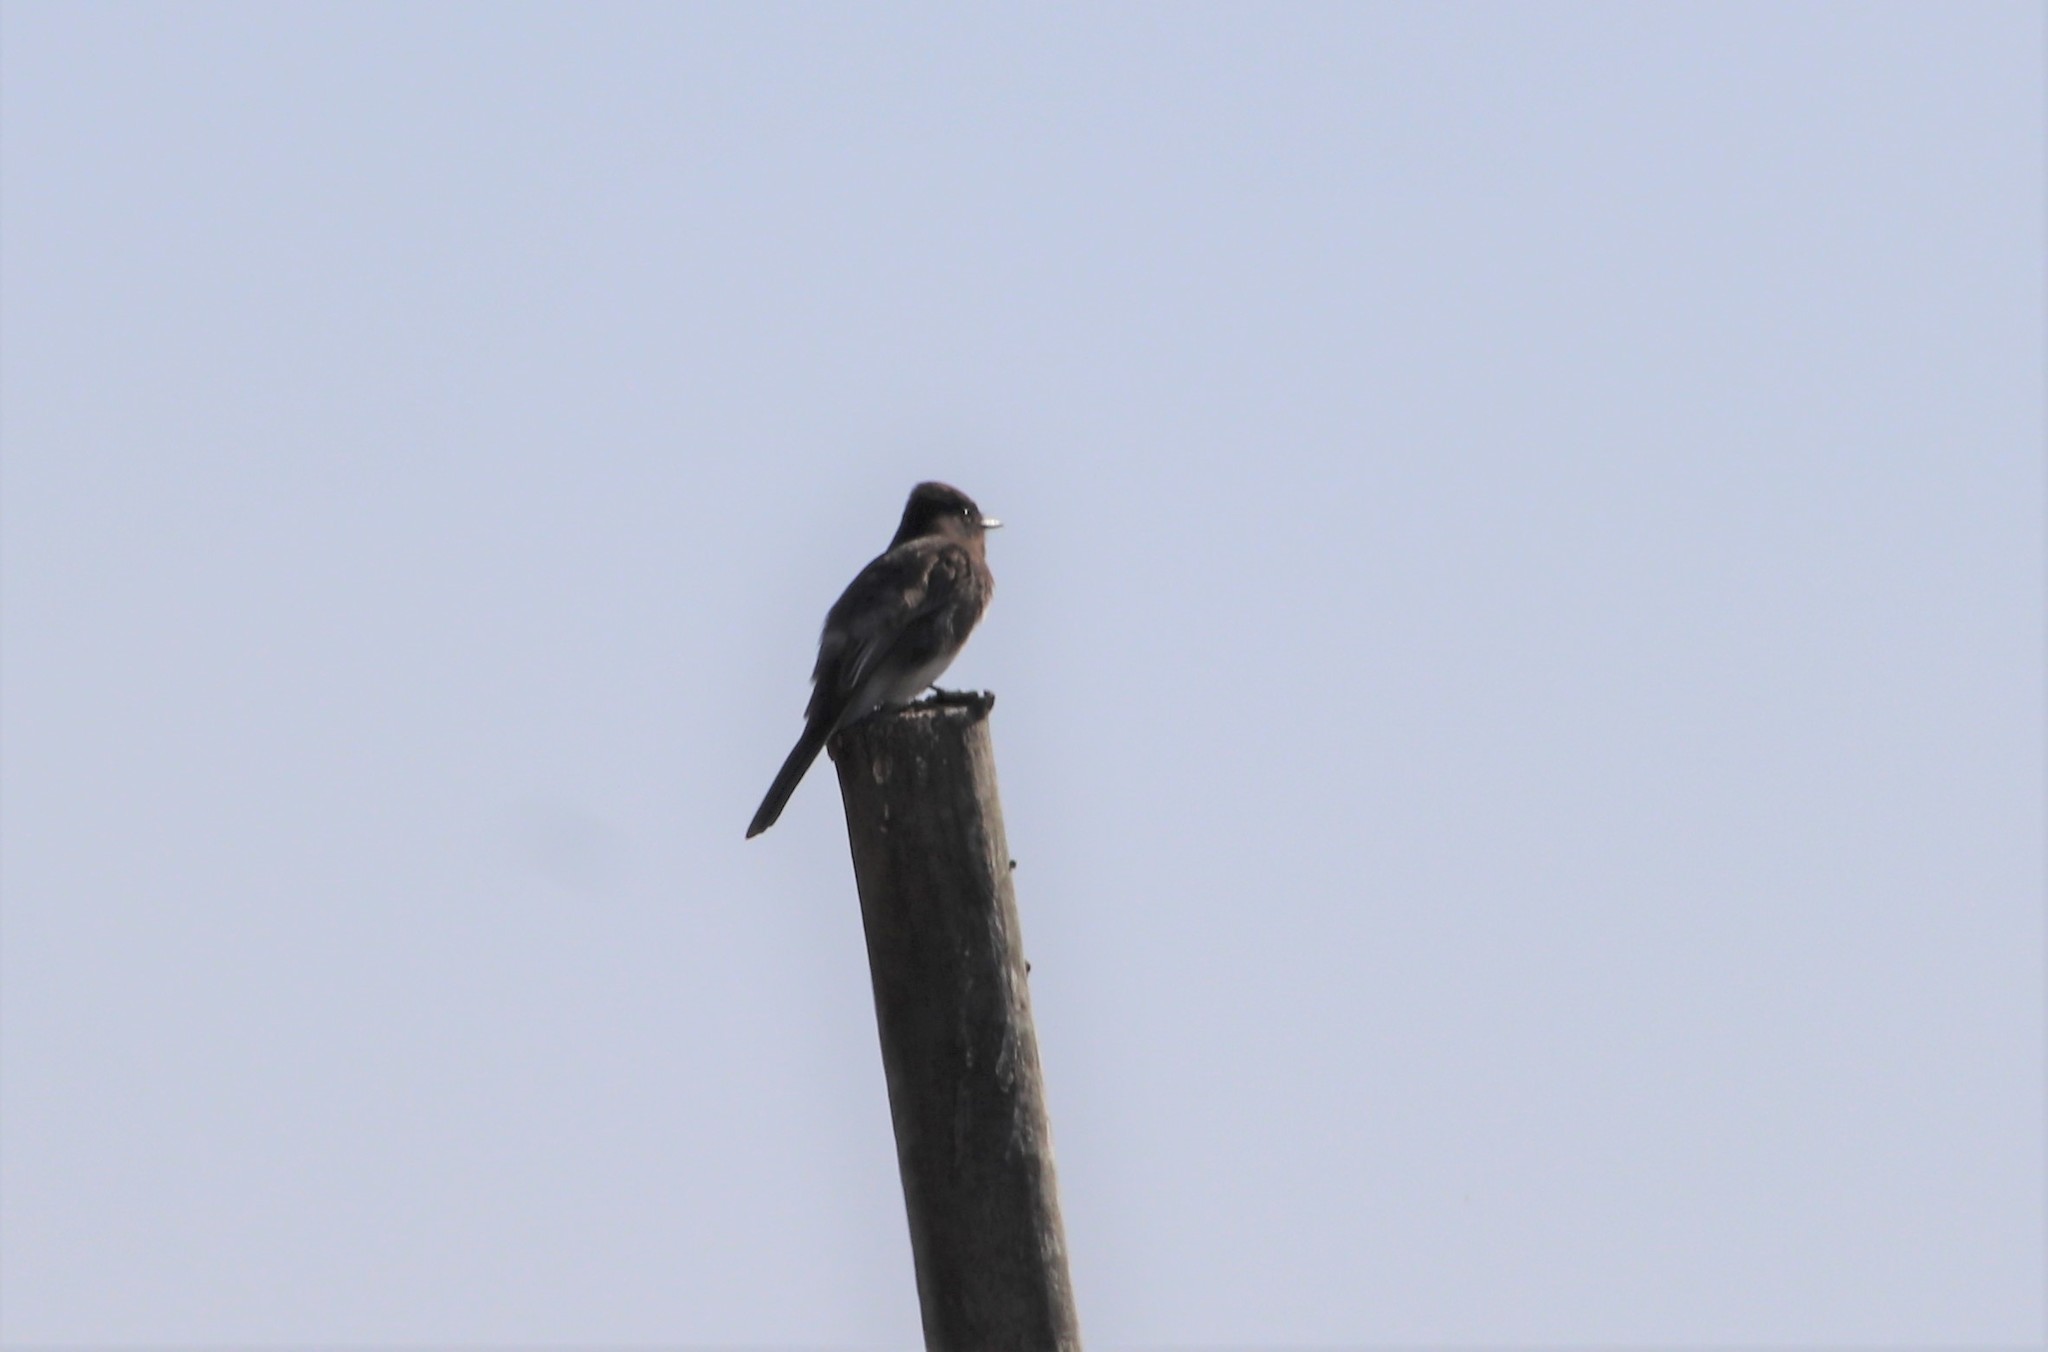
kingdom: Animalia
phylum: Chordata
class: Aves
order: Passeriformes
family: Tyrannidae
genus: Sayornis
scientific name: Sayornis nigricans
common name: Black phoebe
